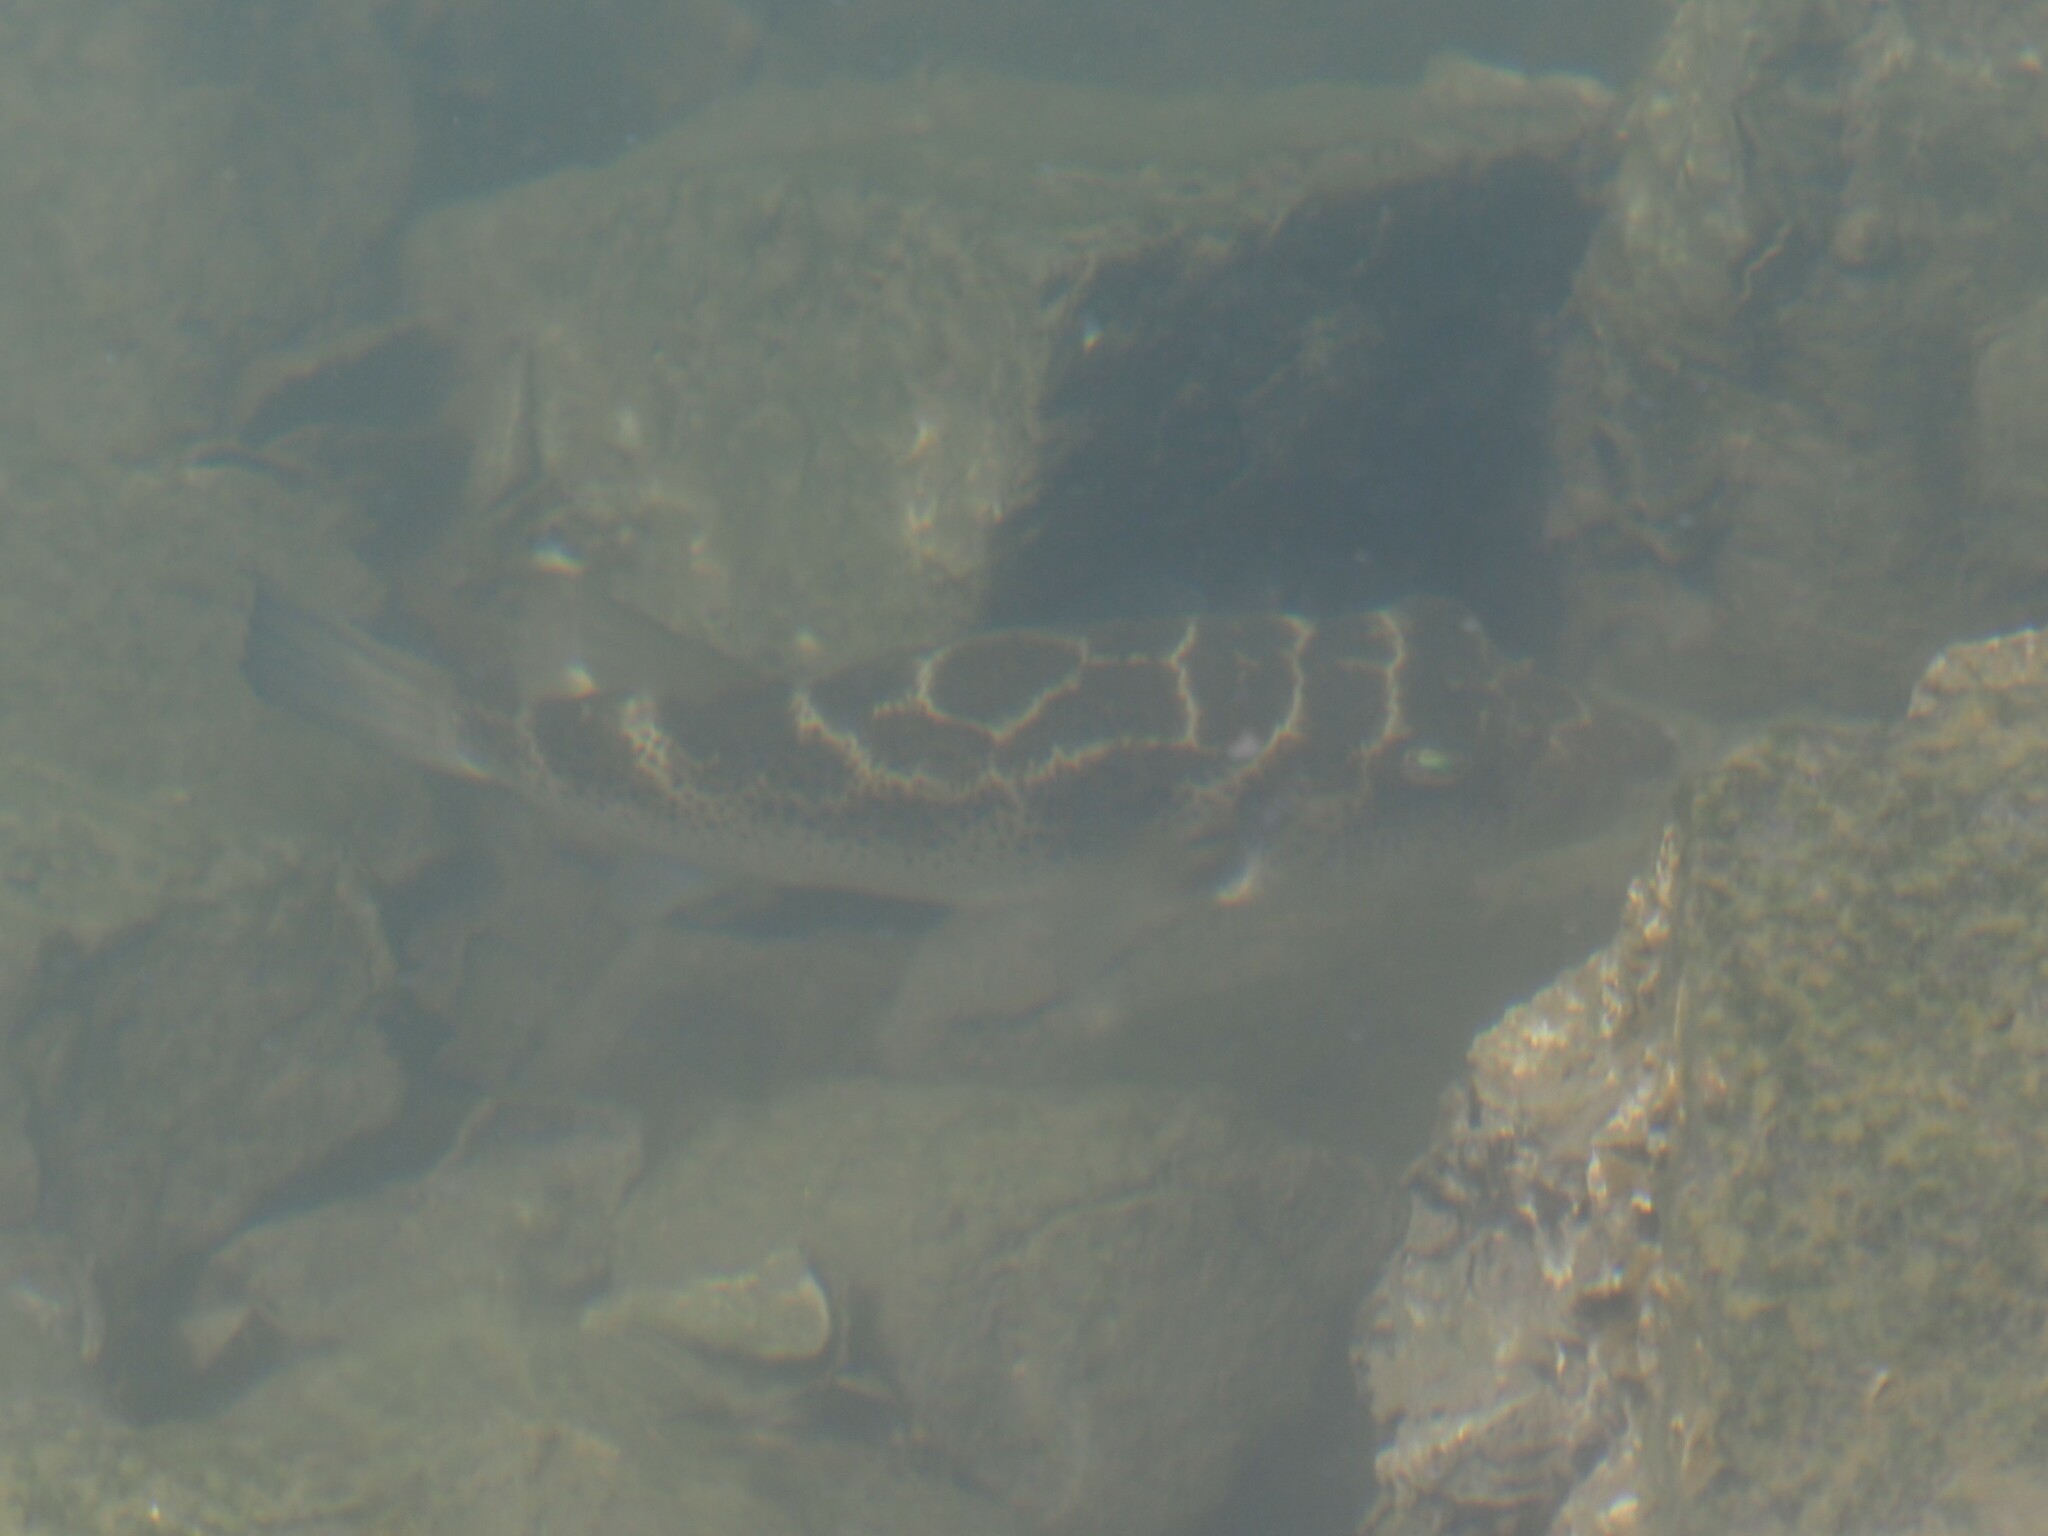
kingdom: Animalia
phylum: Chordata
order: Tetraodontiformes
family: Tetraodontidae
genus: Sphoeroides
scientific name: Sphoeroides annulatus
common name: Bullseye puffer
